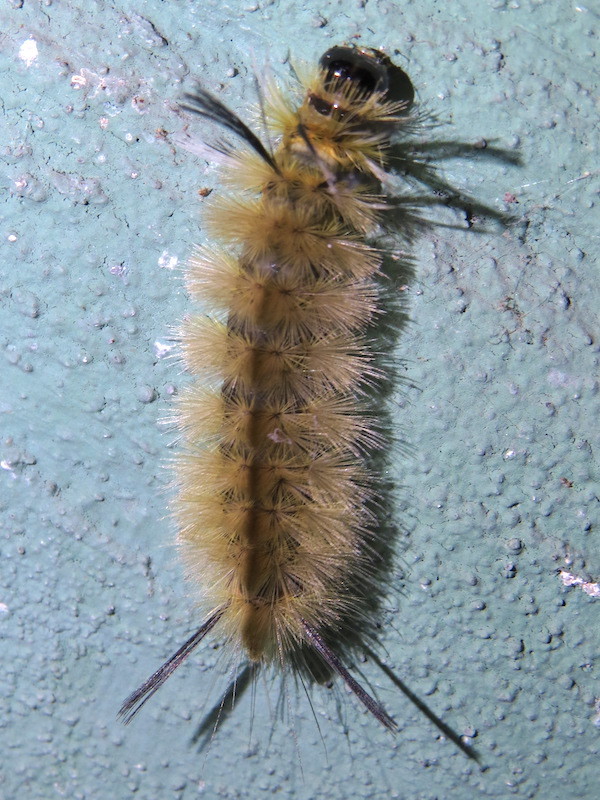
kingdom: Animalia
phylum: Arthropoda
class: Insecta
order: Lepidoptera
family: Erebidae
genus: Halysidota
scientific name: Halysidota tessellaris
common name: Banded tussock moth
